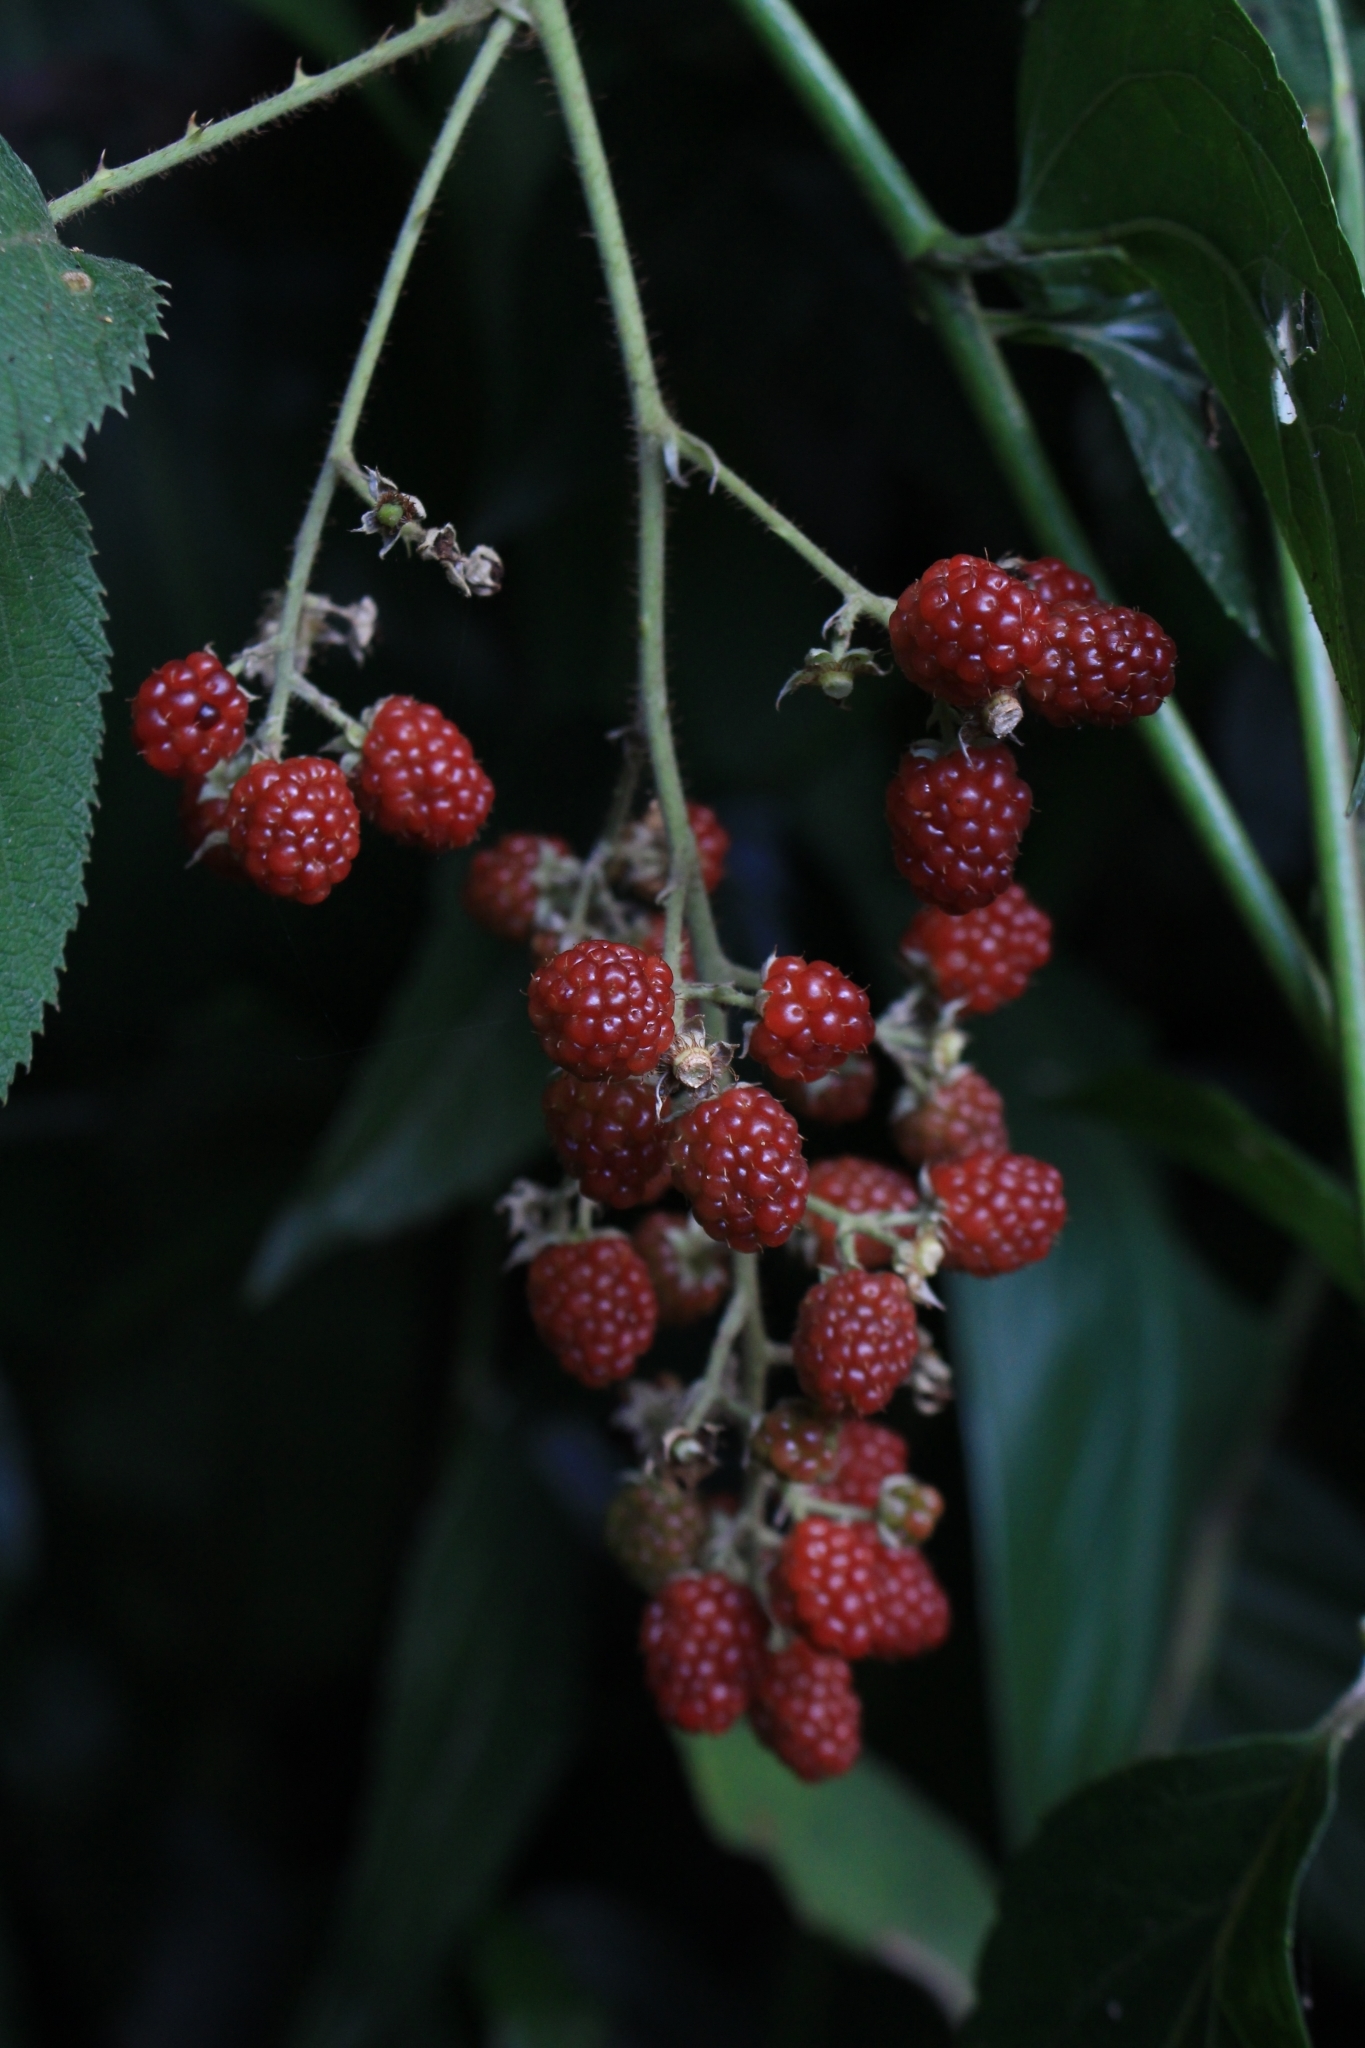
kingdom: Plantae
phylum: Tracheophyta
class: Magnoliopsida
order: Rosales
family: Rosaceae
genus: Rubus
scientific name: Rubus adenotrichos
